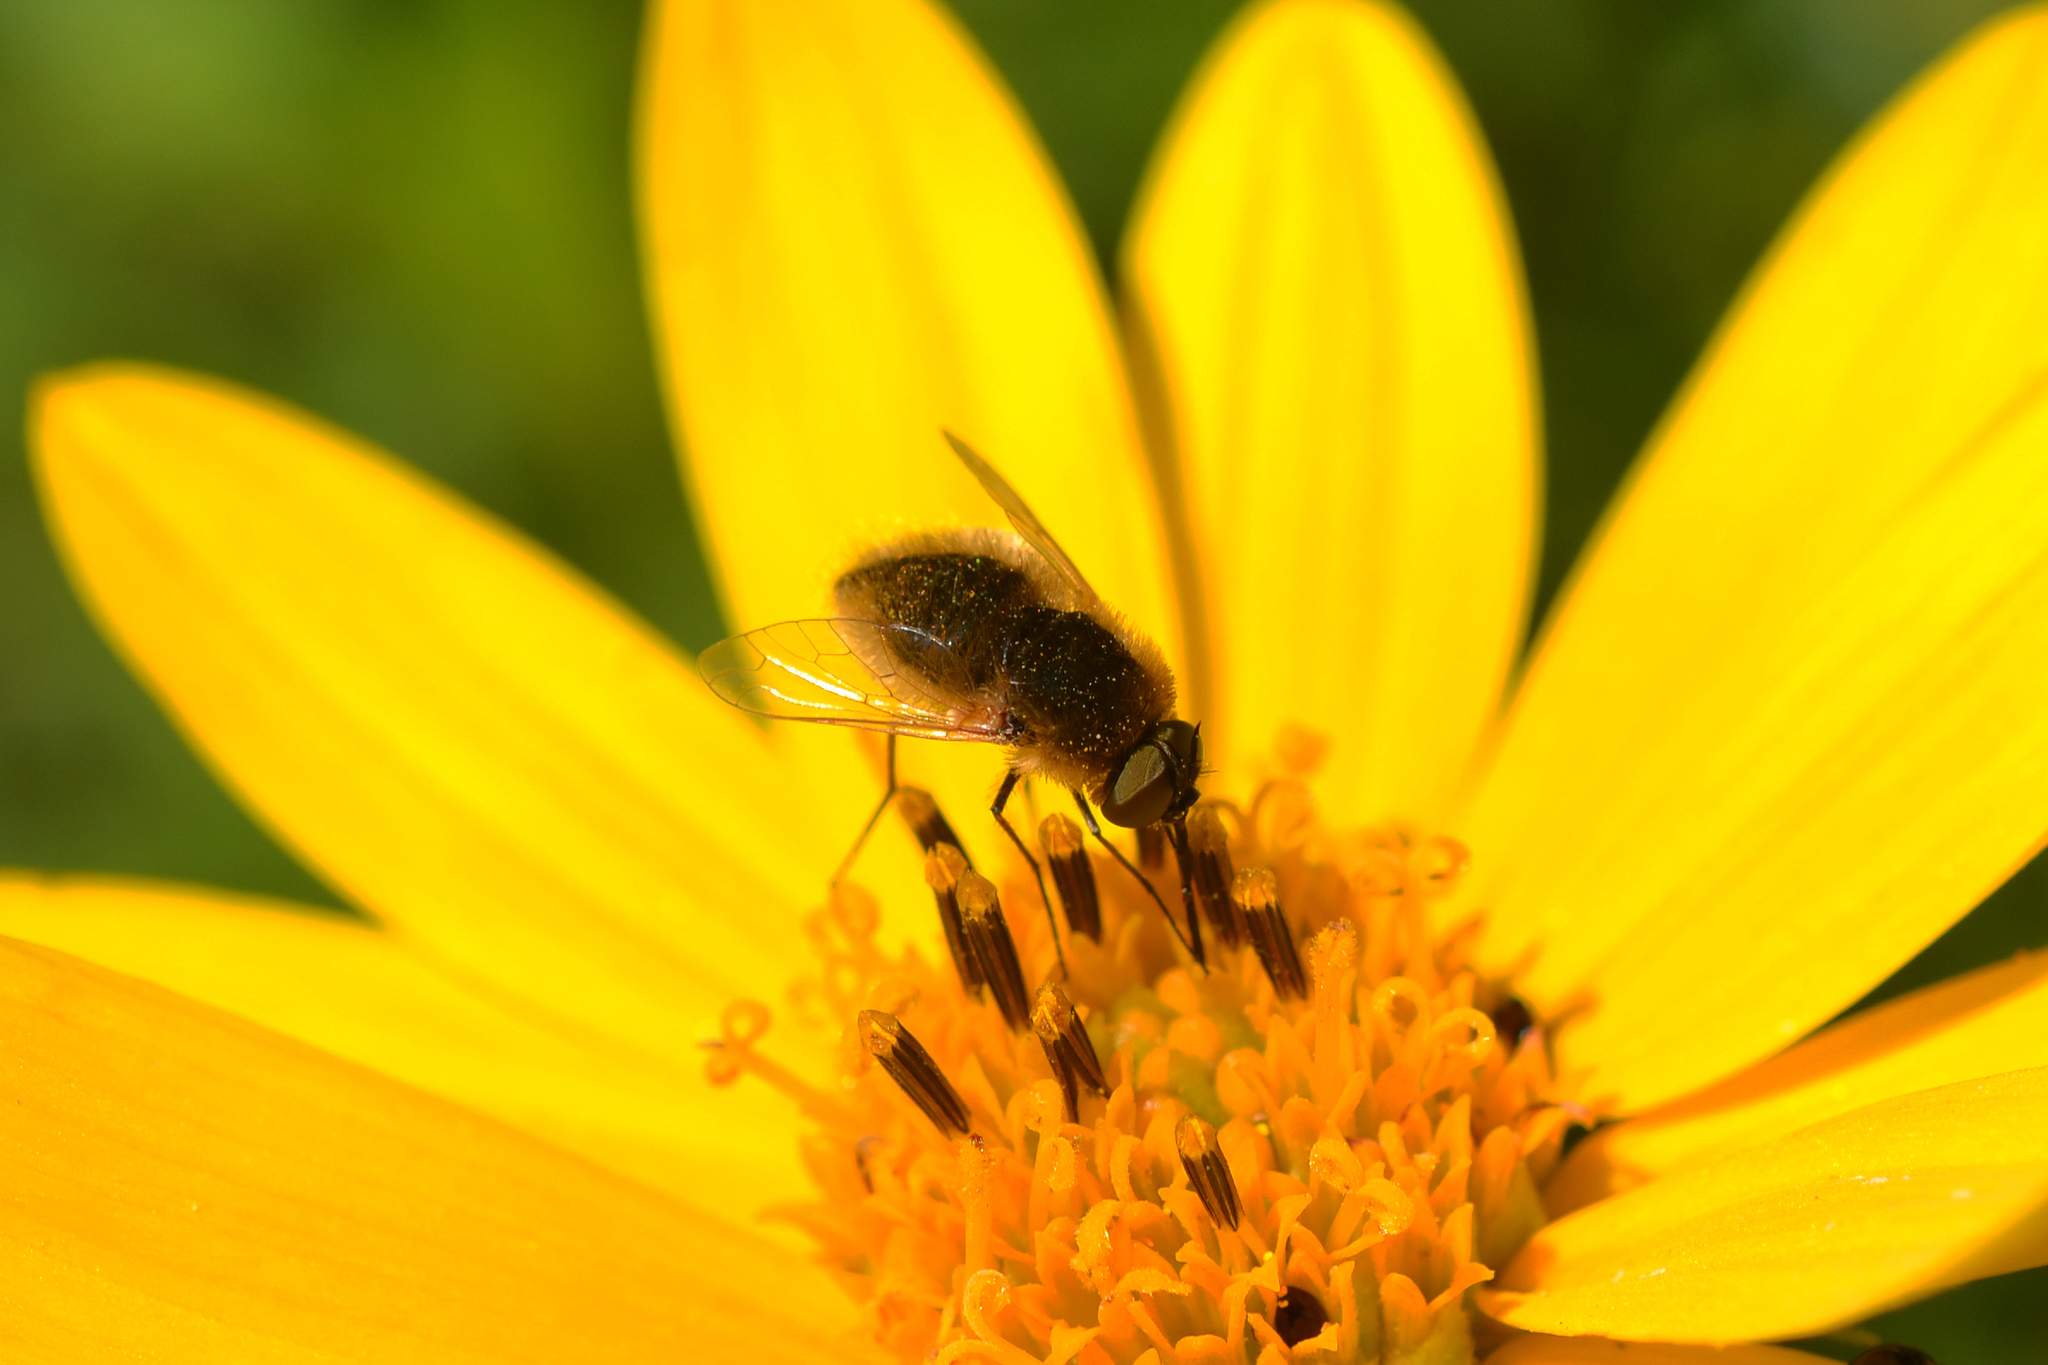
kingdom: Animalia
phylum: Arthropoda
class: Insecta
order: Diptera
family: Bombyliidae
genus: Sparnopolius
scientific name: Sparnopolius confusus
